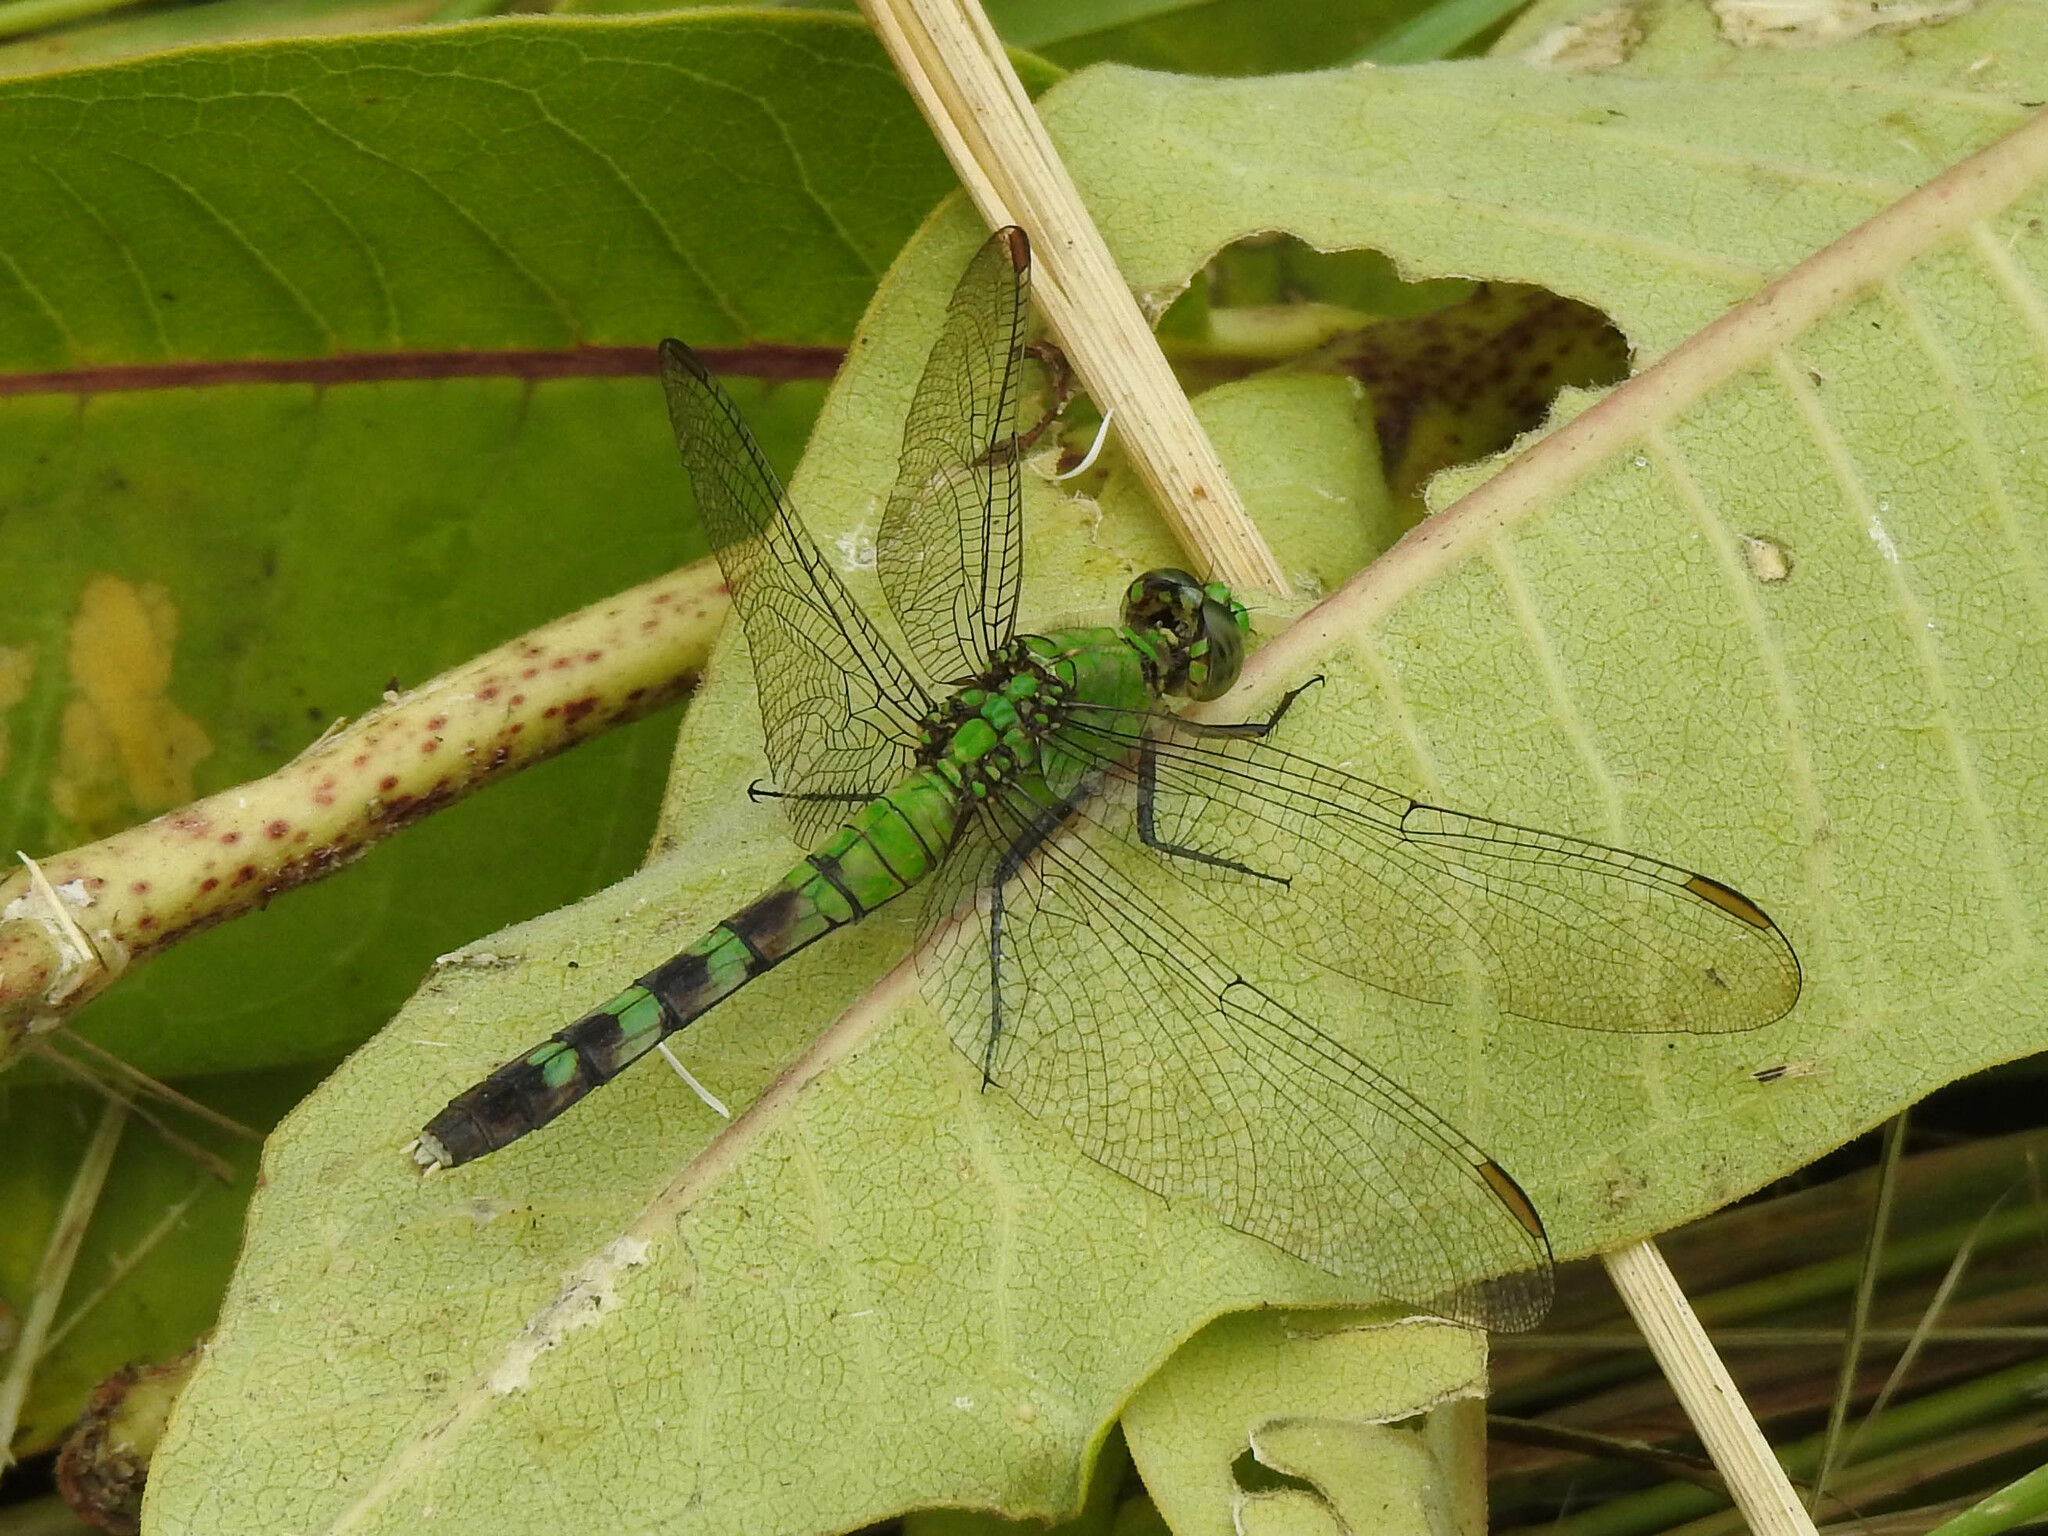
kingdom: Animalia
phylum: Arthropoda
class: Insecta
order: Odonata
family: Libellulidae
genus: Erythemis
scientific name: Erythemis simplicicollis
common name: Eastern pondhawk
